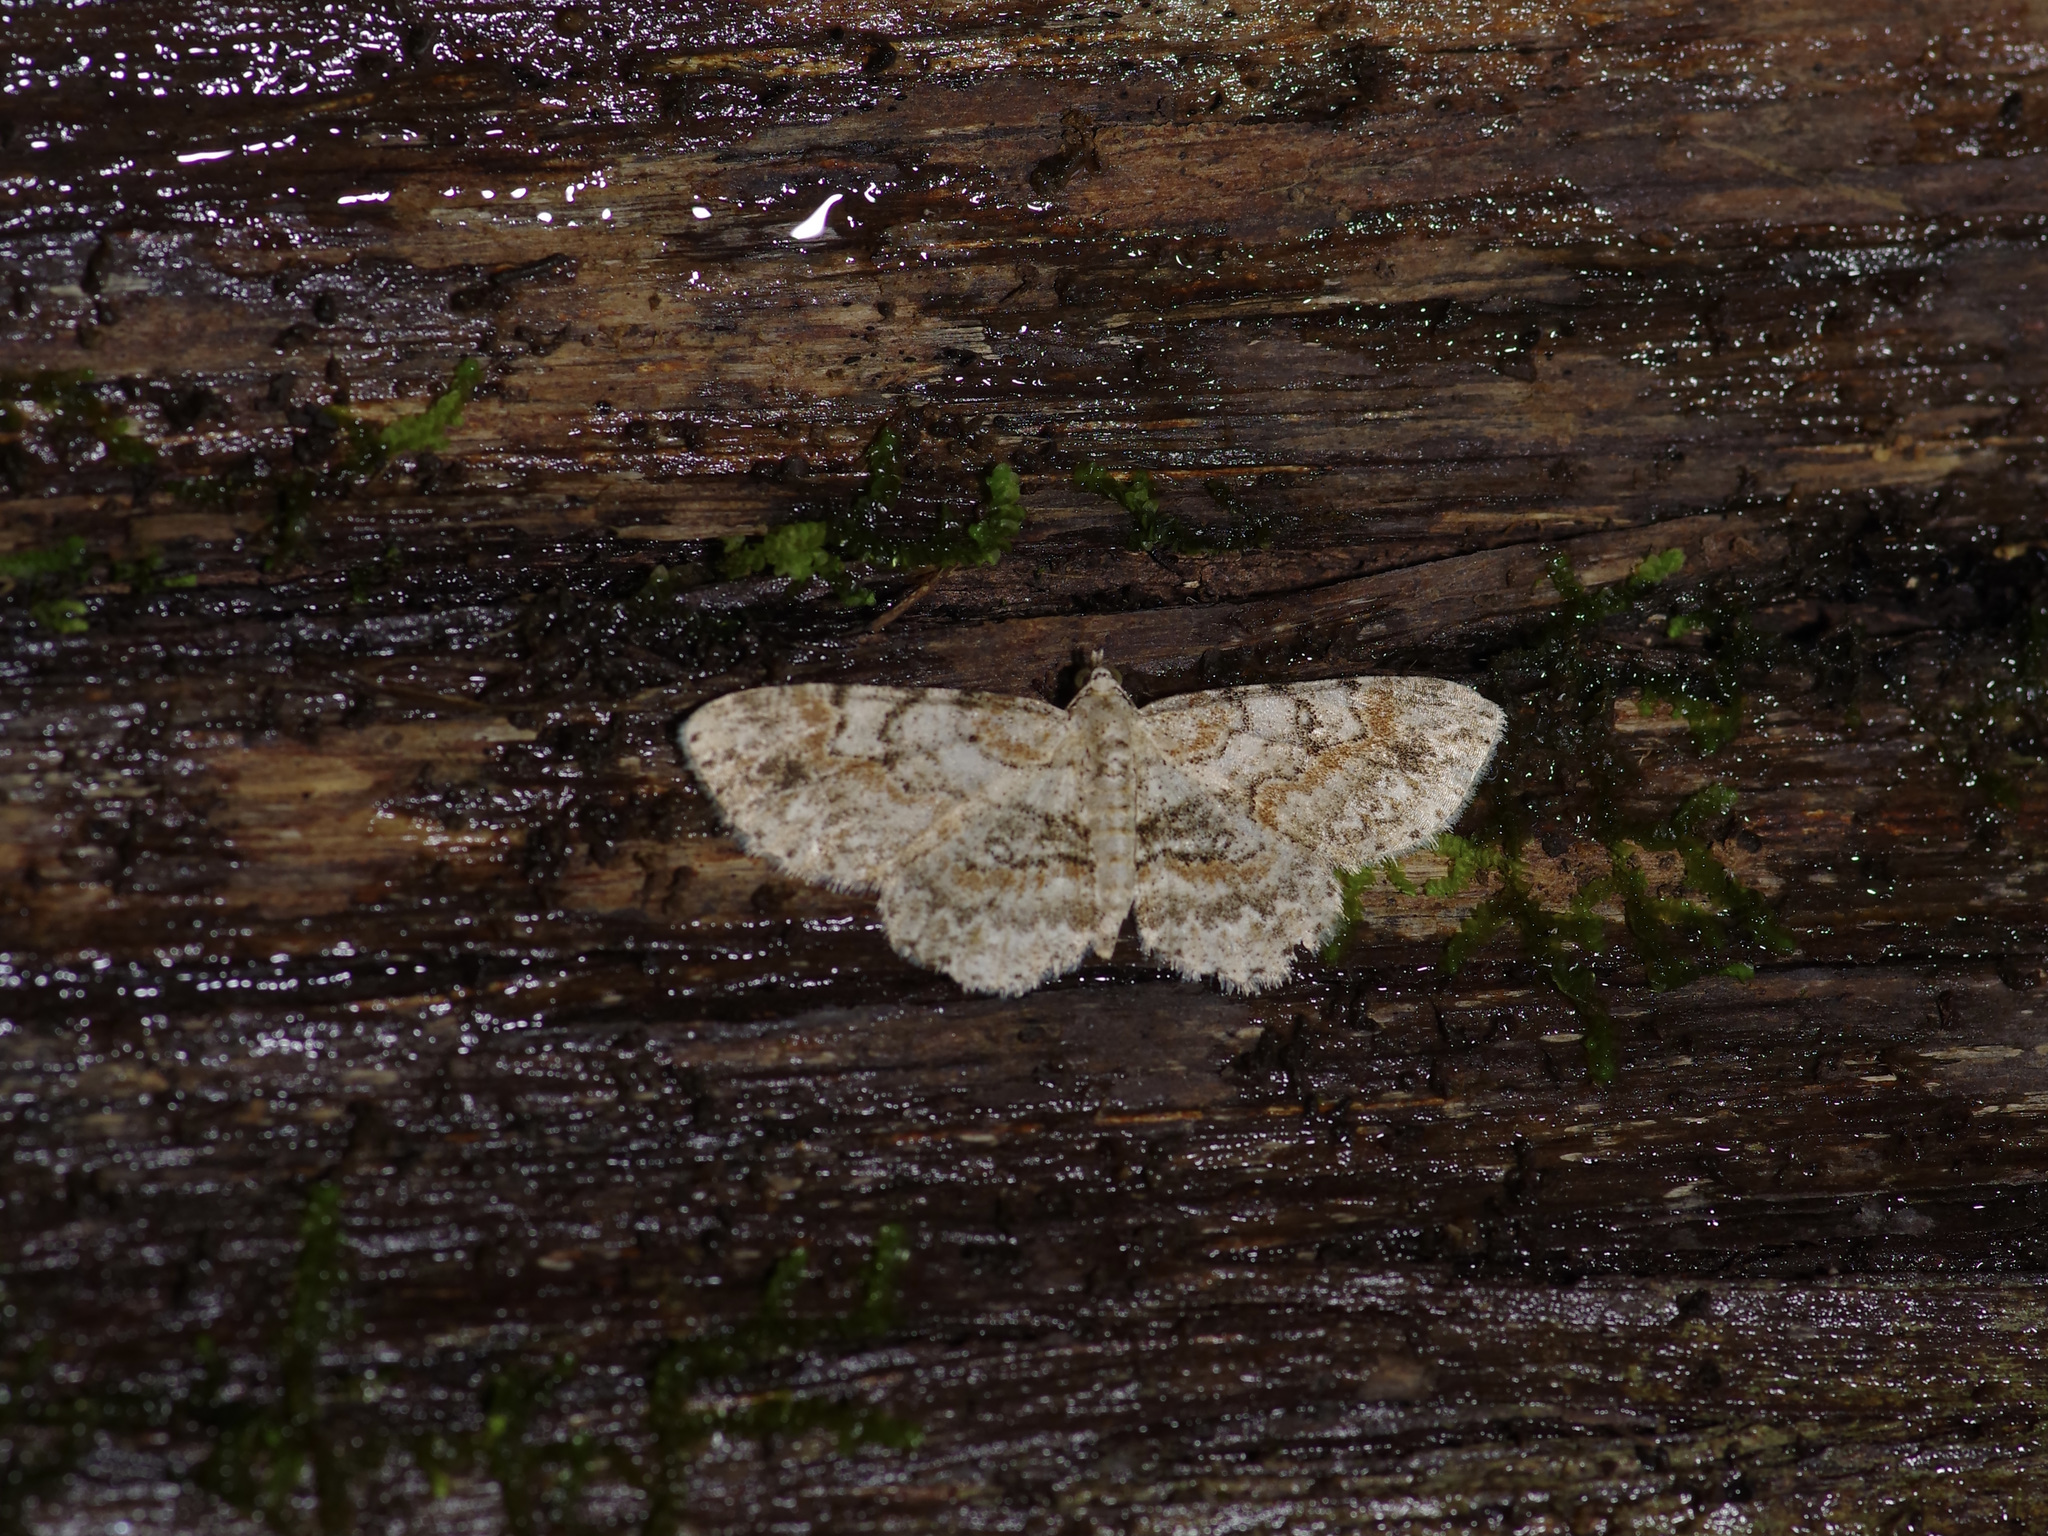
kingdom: Animalia
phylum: Arthropoda
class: Insecta
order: Lepidoptera
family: Geometridae
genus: Iridopsis
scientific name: Iridopsis ephyraria
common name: Pale-winged gray
